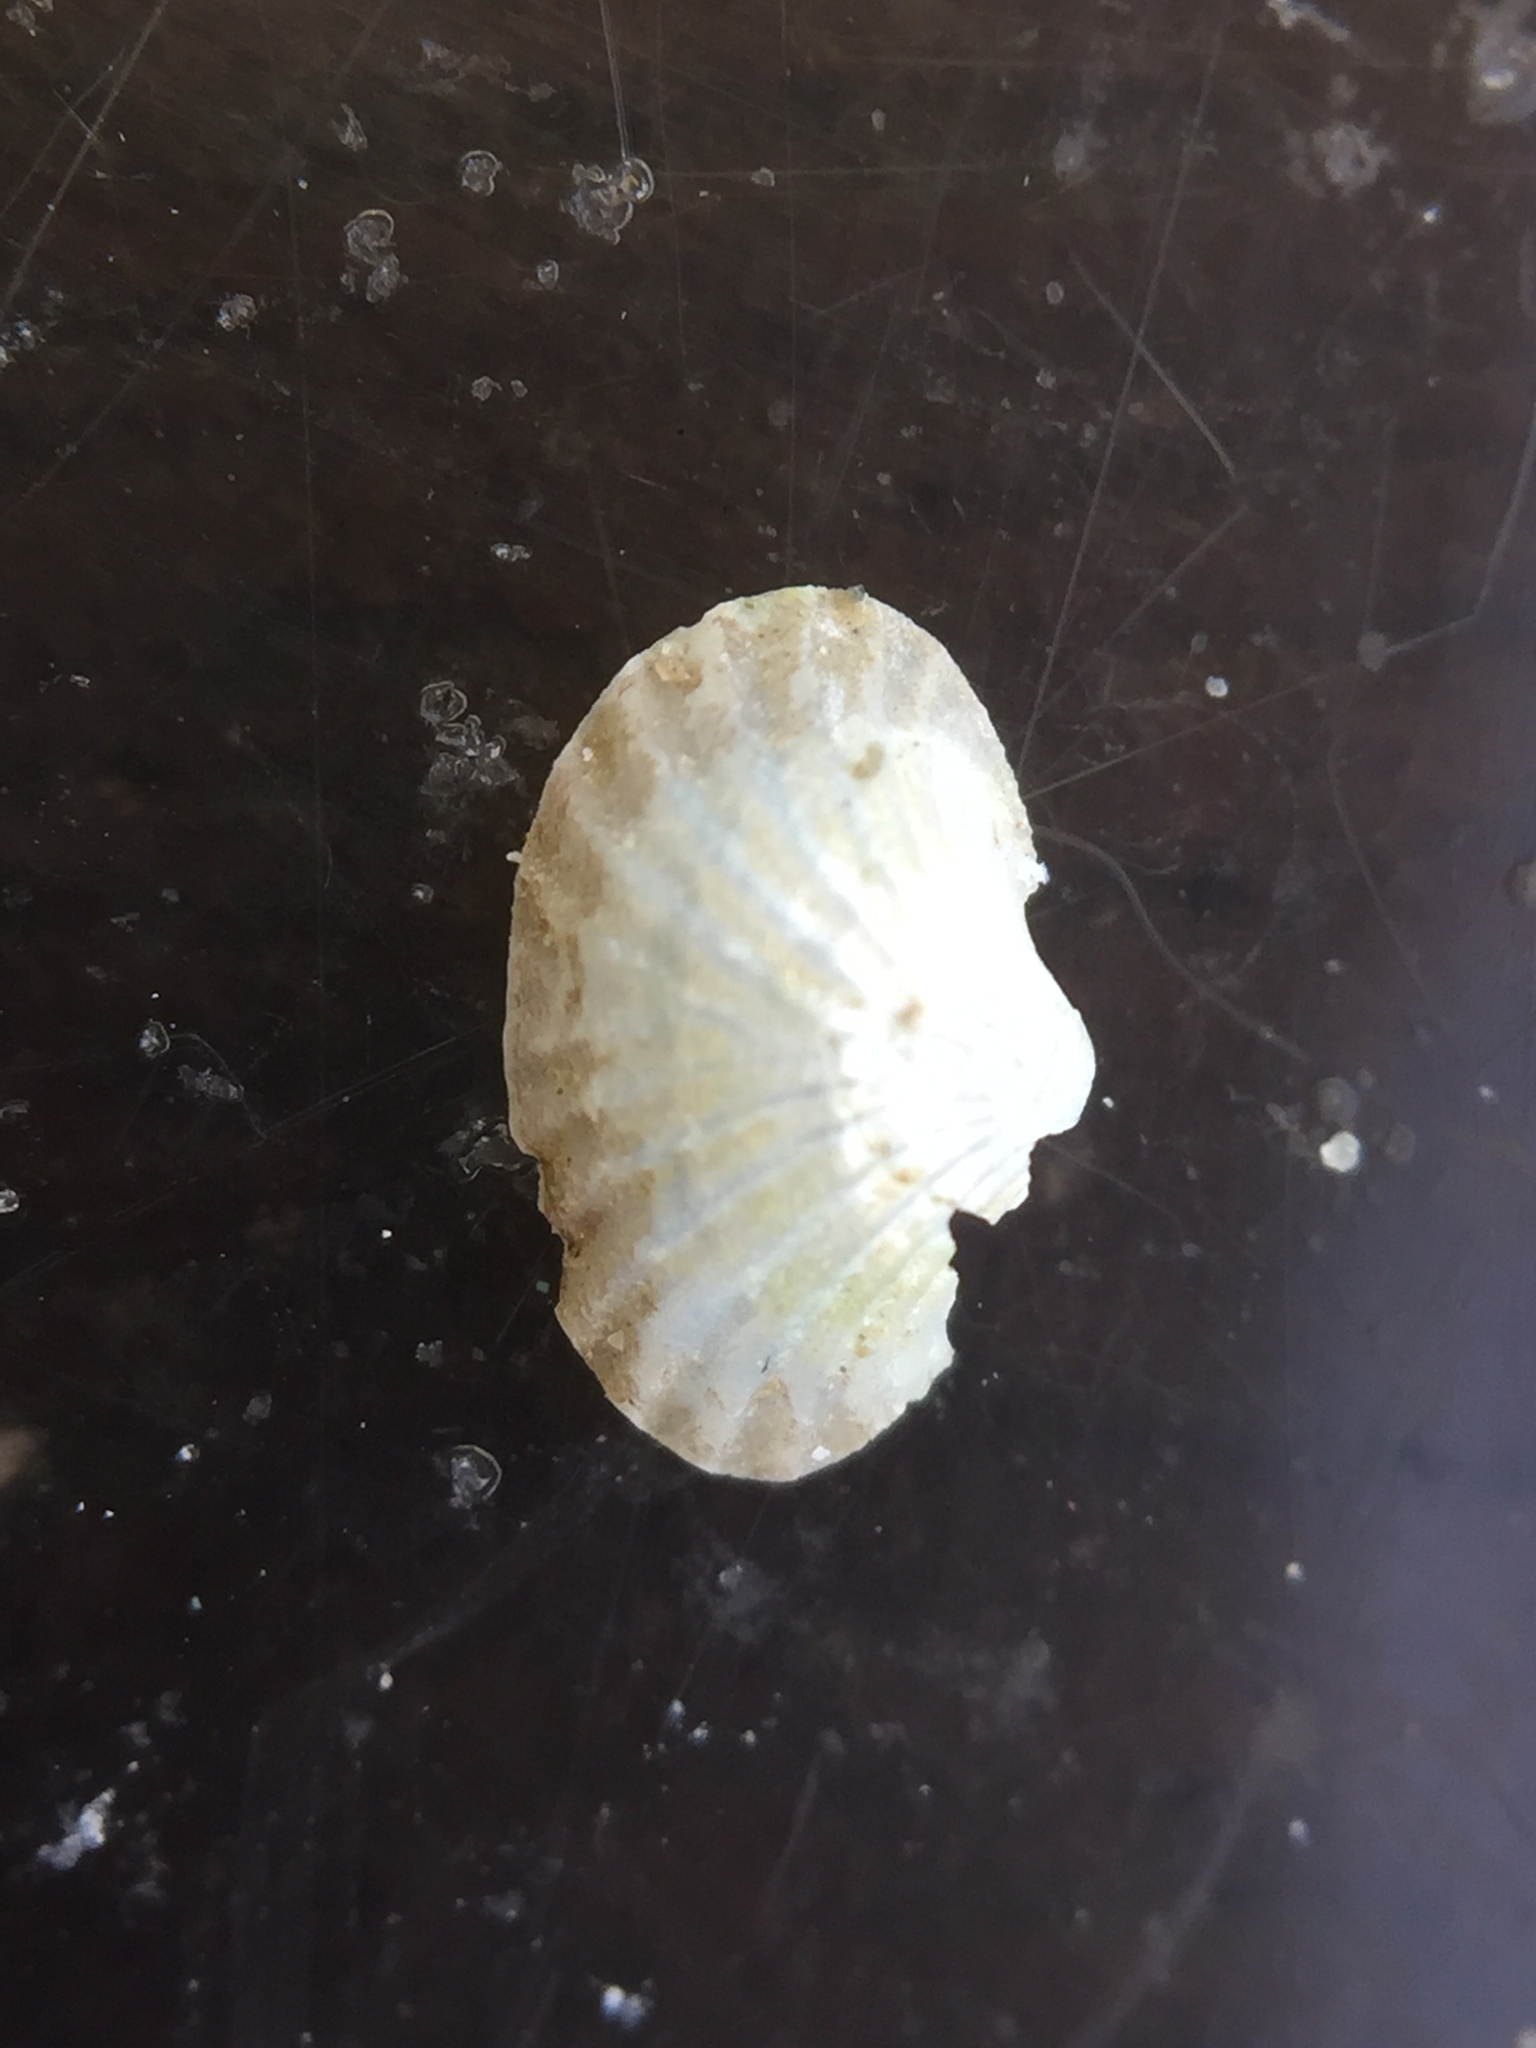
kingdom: Animalia
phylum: Mollusca
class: Bivalvia
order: Galeommatida
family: Lasaeidae
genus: Myllita
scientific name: Myllita stowei
